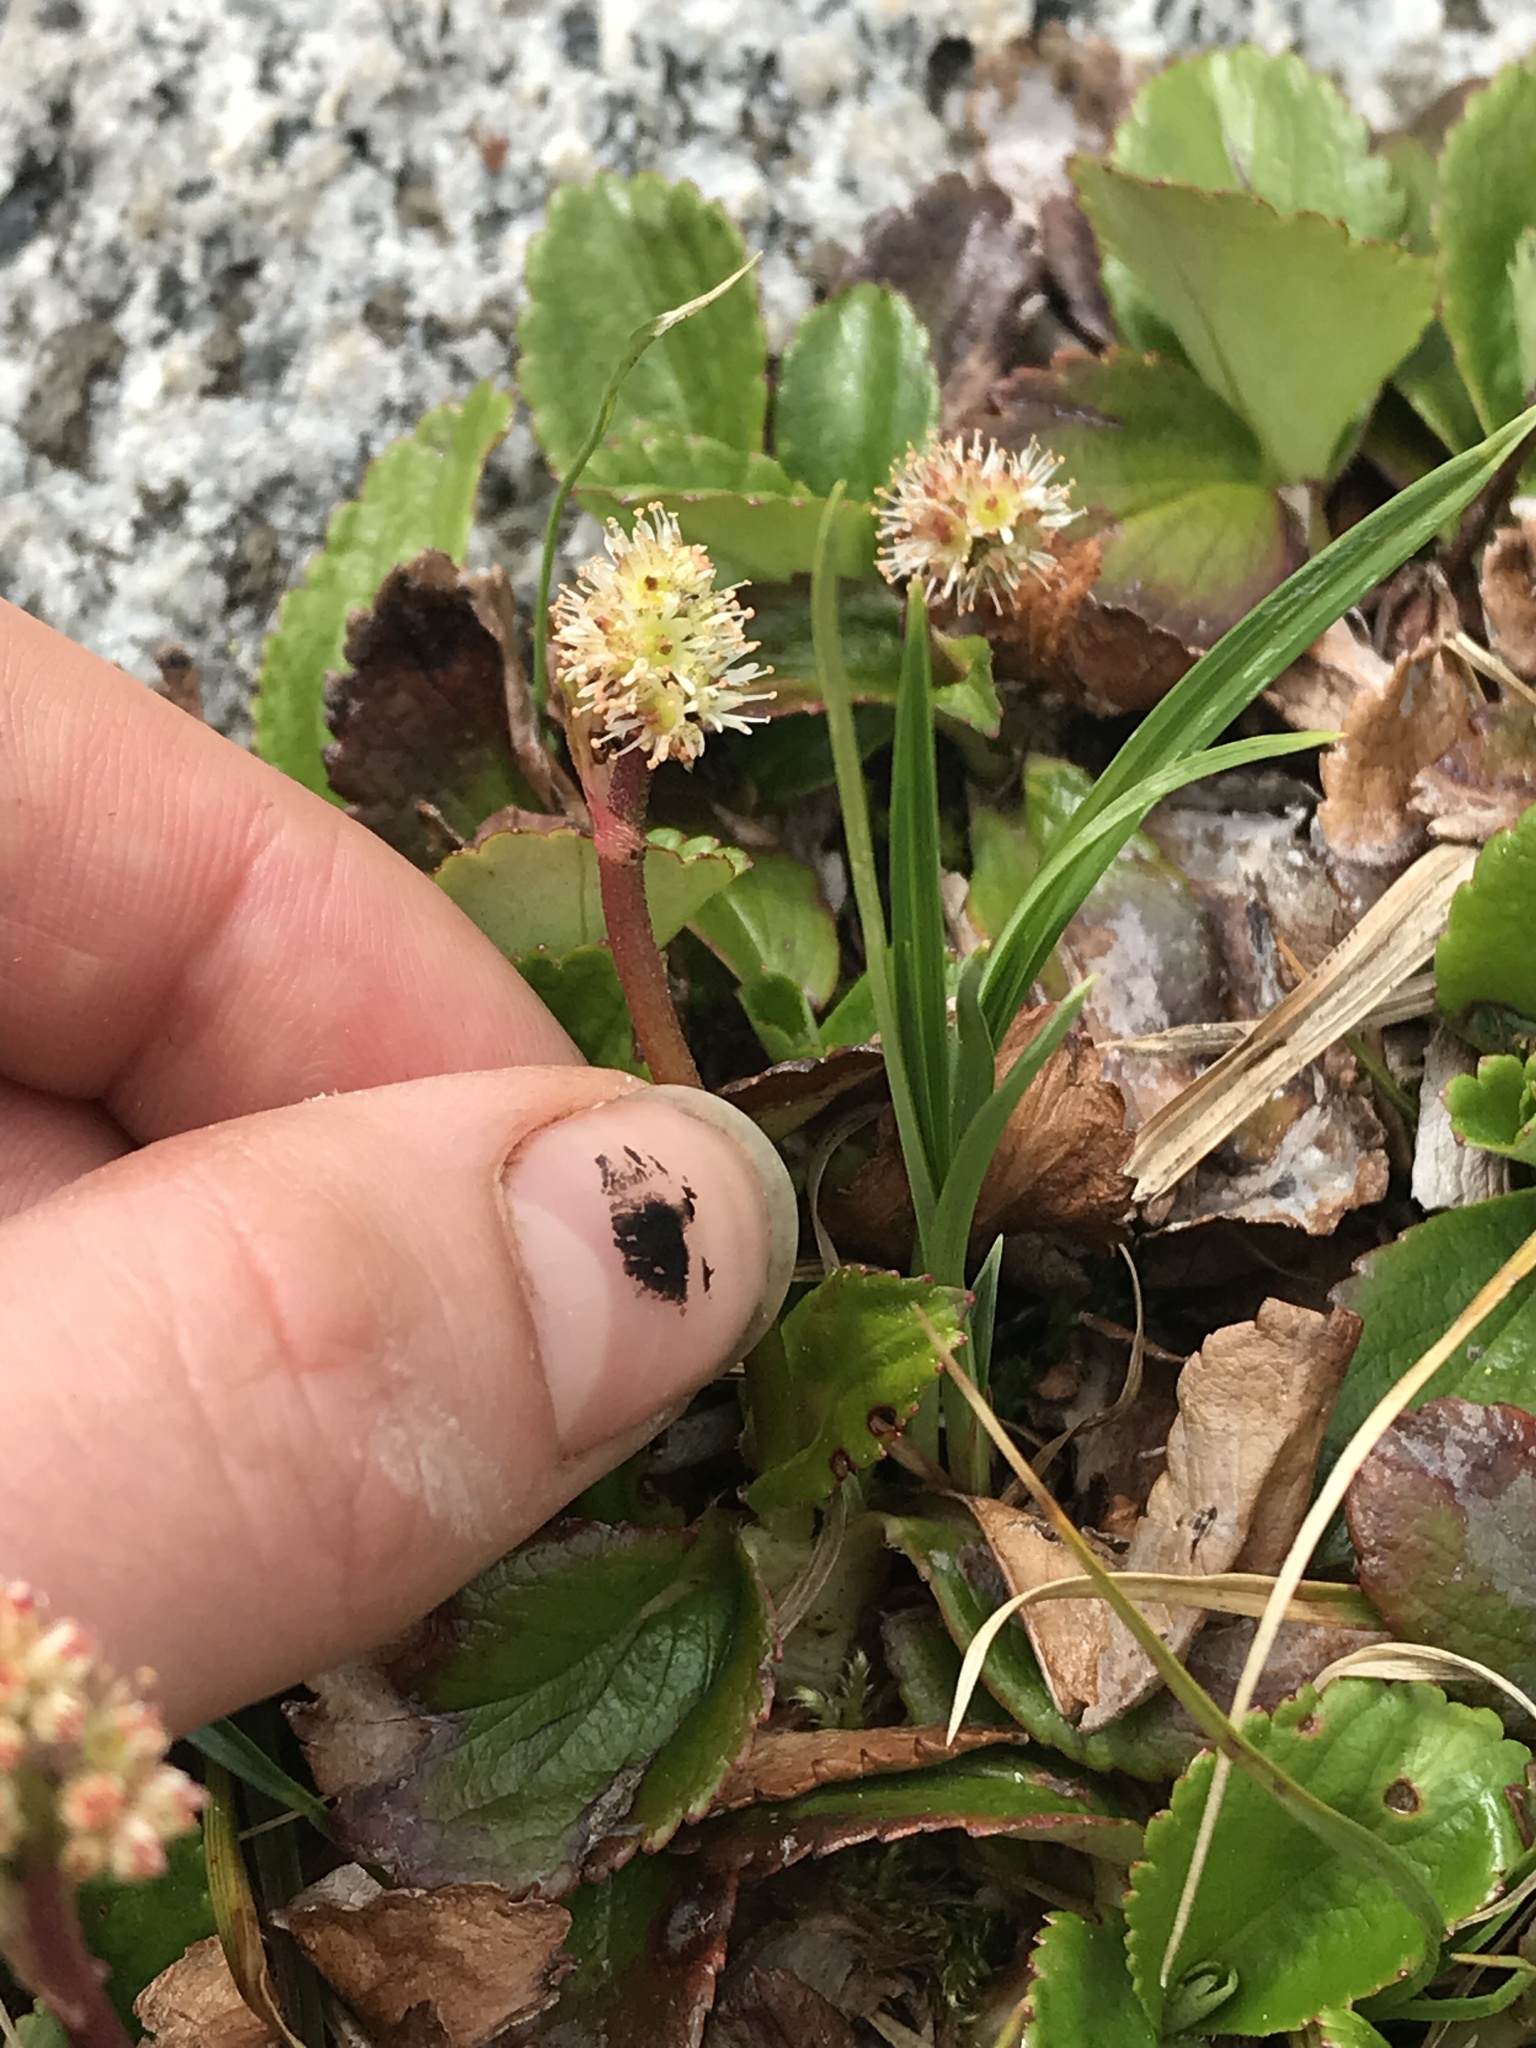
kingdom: Plantae
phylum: Tracheophyta
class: Magnoliopsida
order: Saxifragales
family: Saxifragaceae
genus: Leptarrhena
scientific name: Leptarrhena pyrolifolia
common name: Leatherleaf-saxifrage
